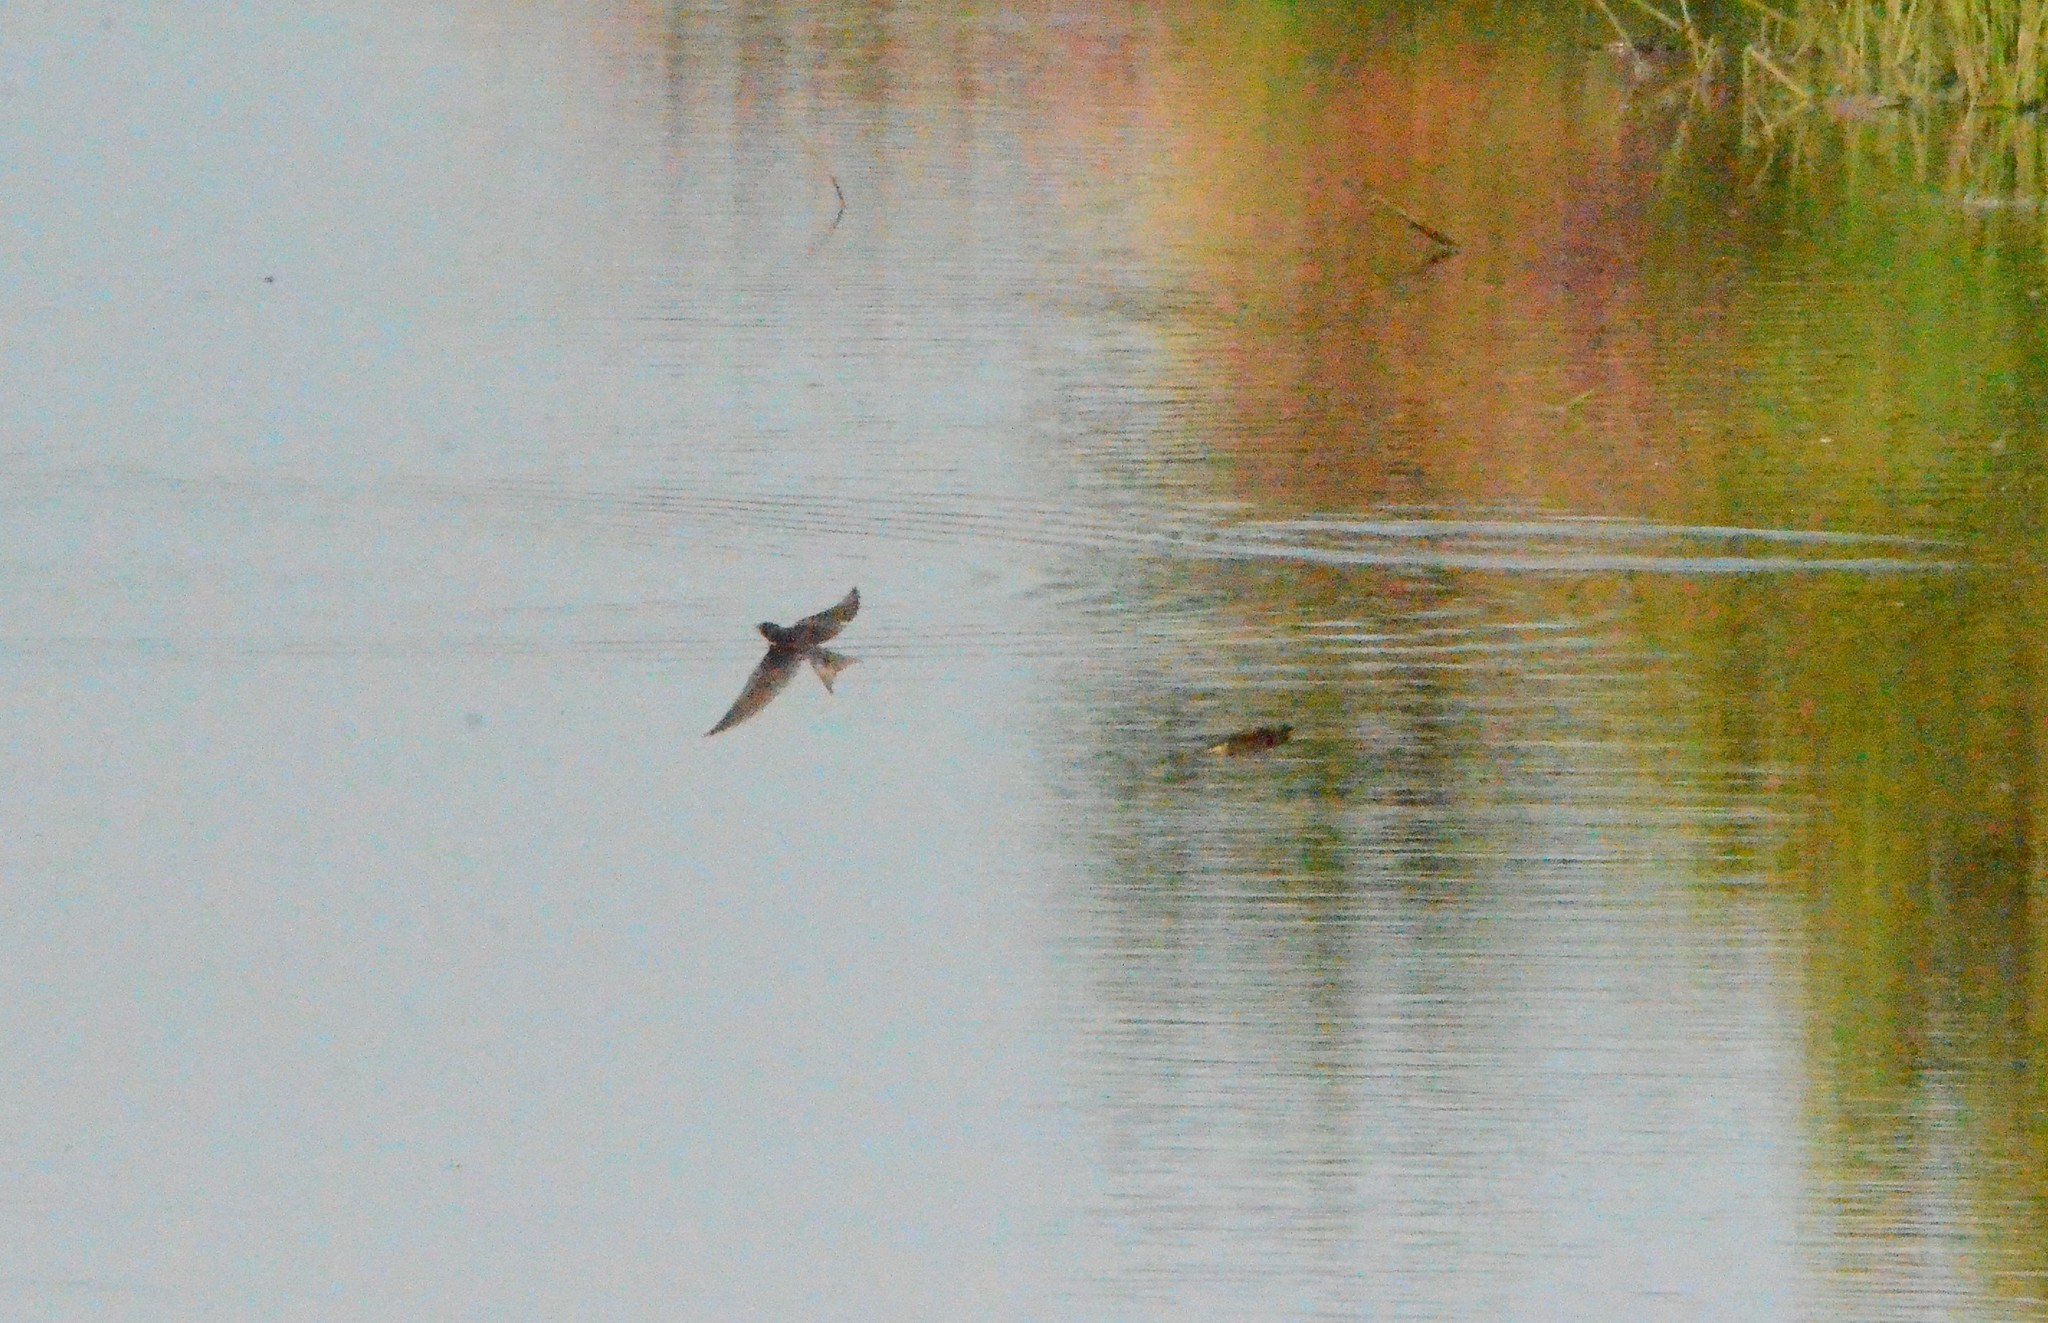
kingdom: Animalia
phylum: Chordata
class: Aves
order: Passeriformes
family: Hirundinidae
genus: Hirundo
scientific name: Hirundo rustica
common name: Barn swallow
